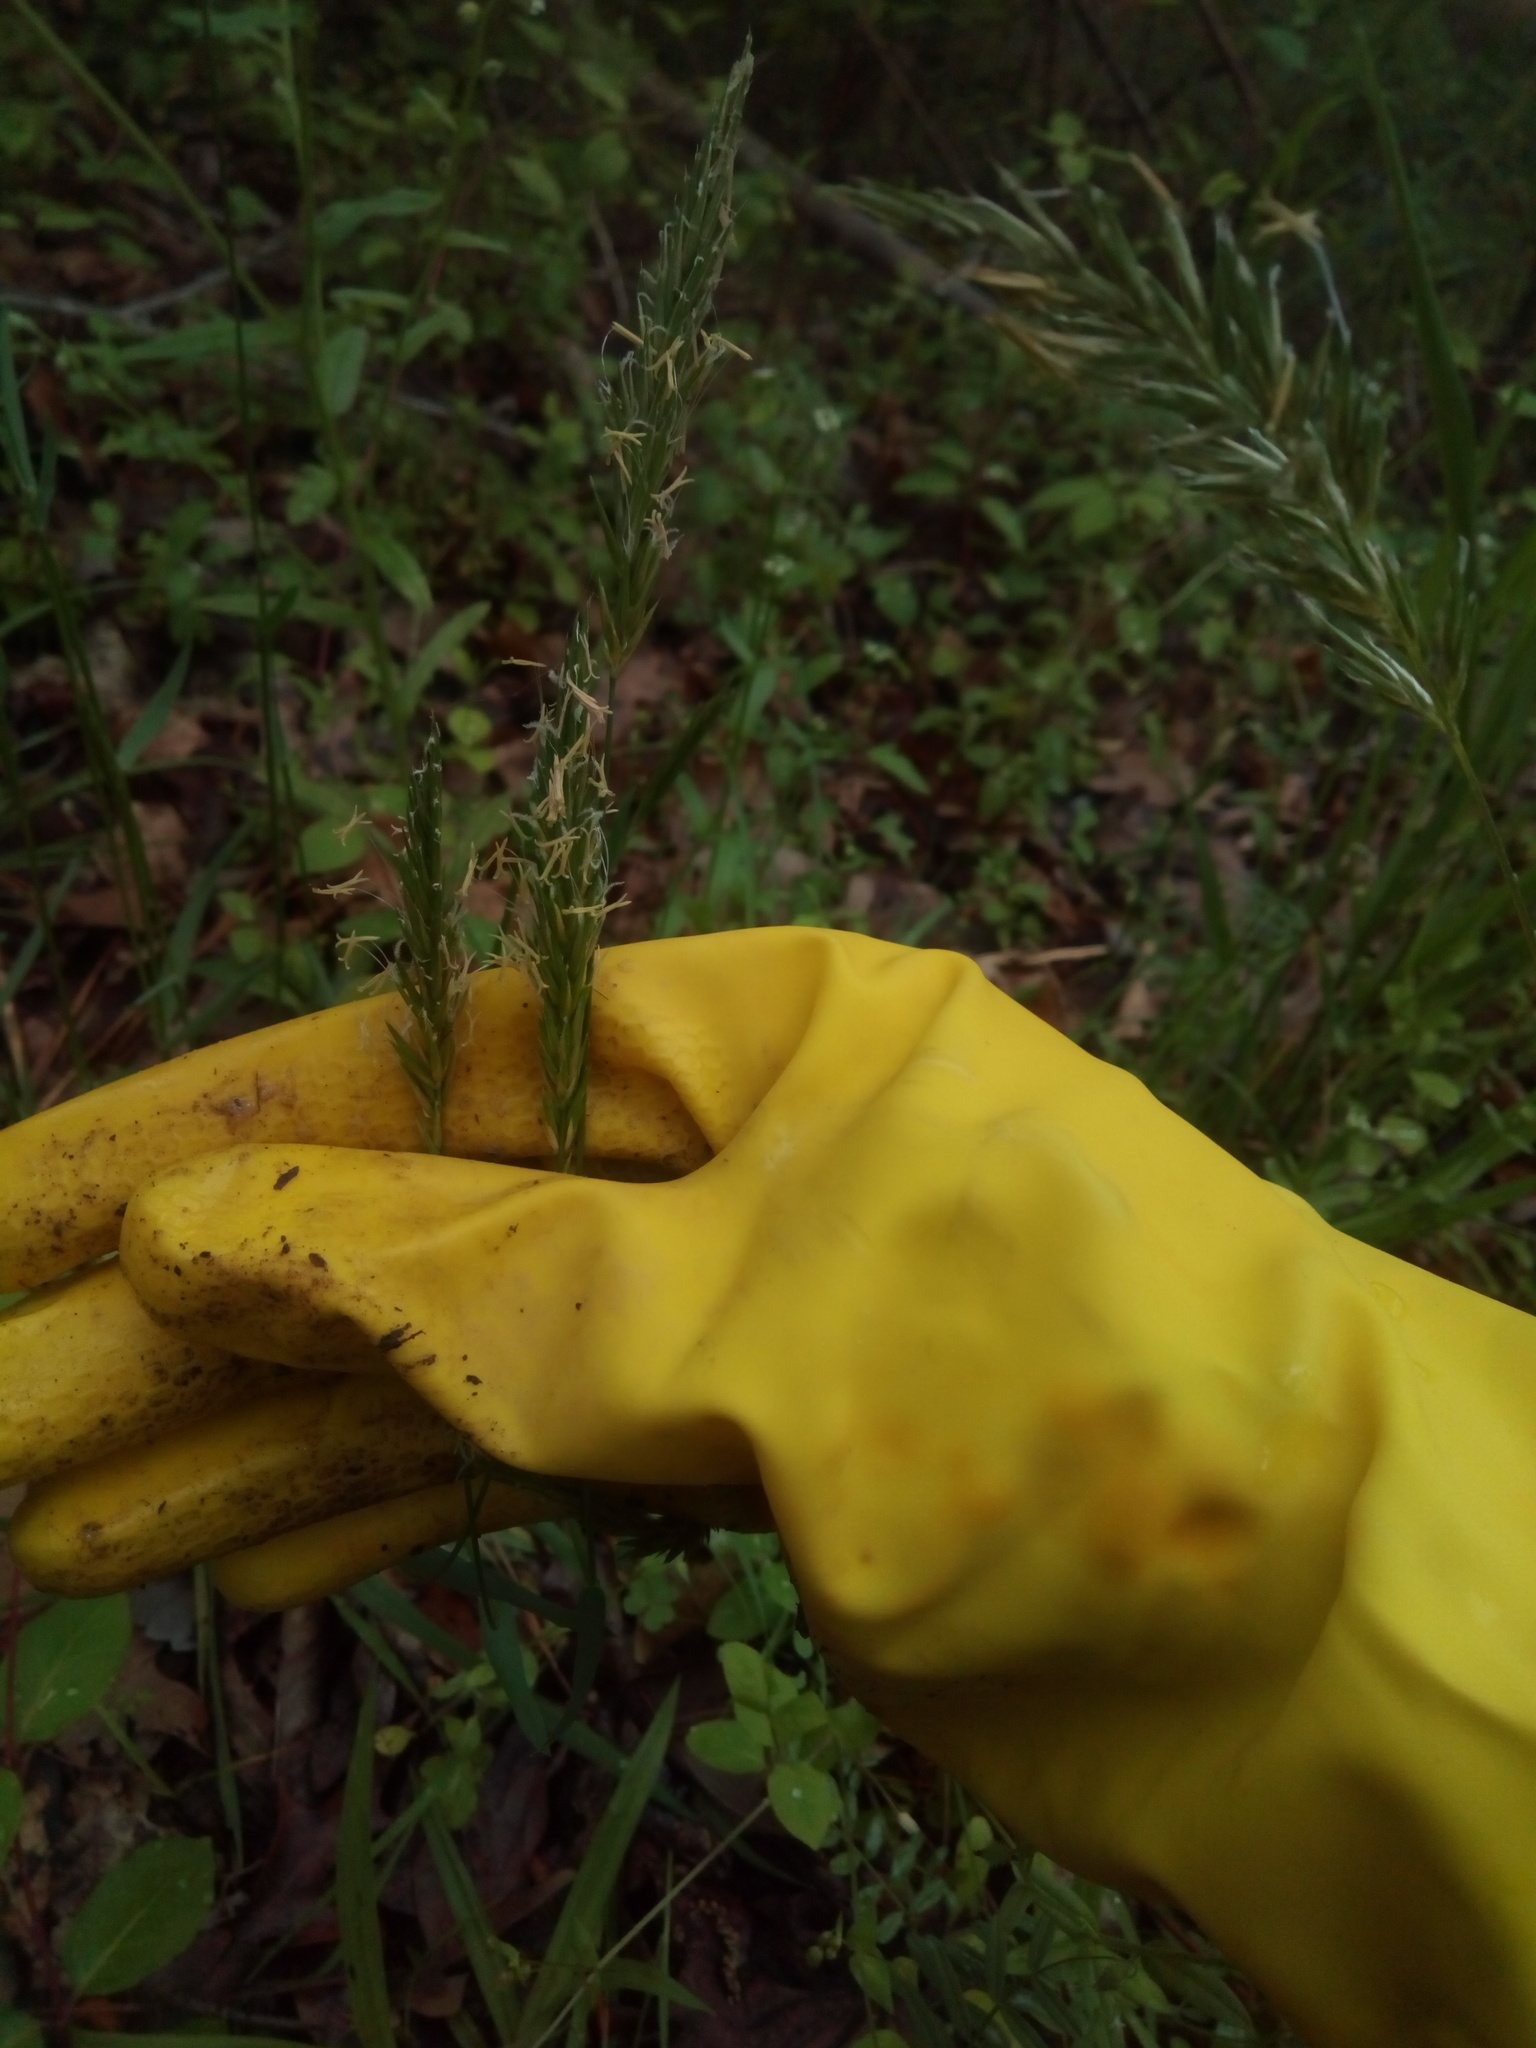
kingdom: Plantae
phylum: Tracheophyta
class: Liliopsida
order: Poales
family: Poaceae
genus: Anthoxanthum
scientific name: Anthoxanthum odoratum
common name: Sweet vernalgrass
